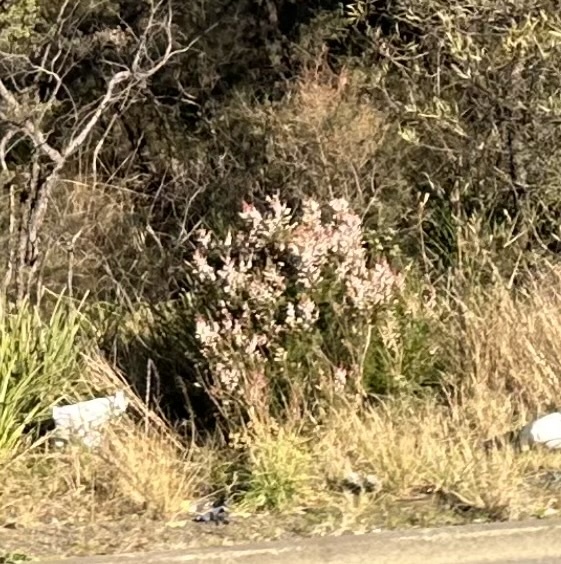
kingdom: Plantae
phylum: Tracheophyta
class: Magnoliopsida
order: Ericales
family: Ericaceae
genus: Erica
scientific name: Erica lusitanica
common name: Spanish heath
